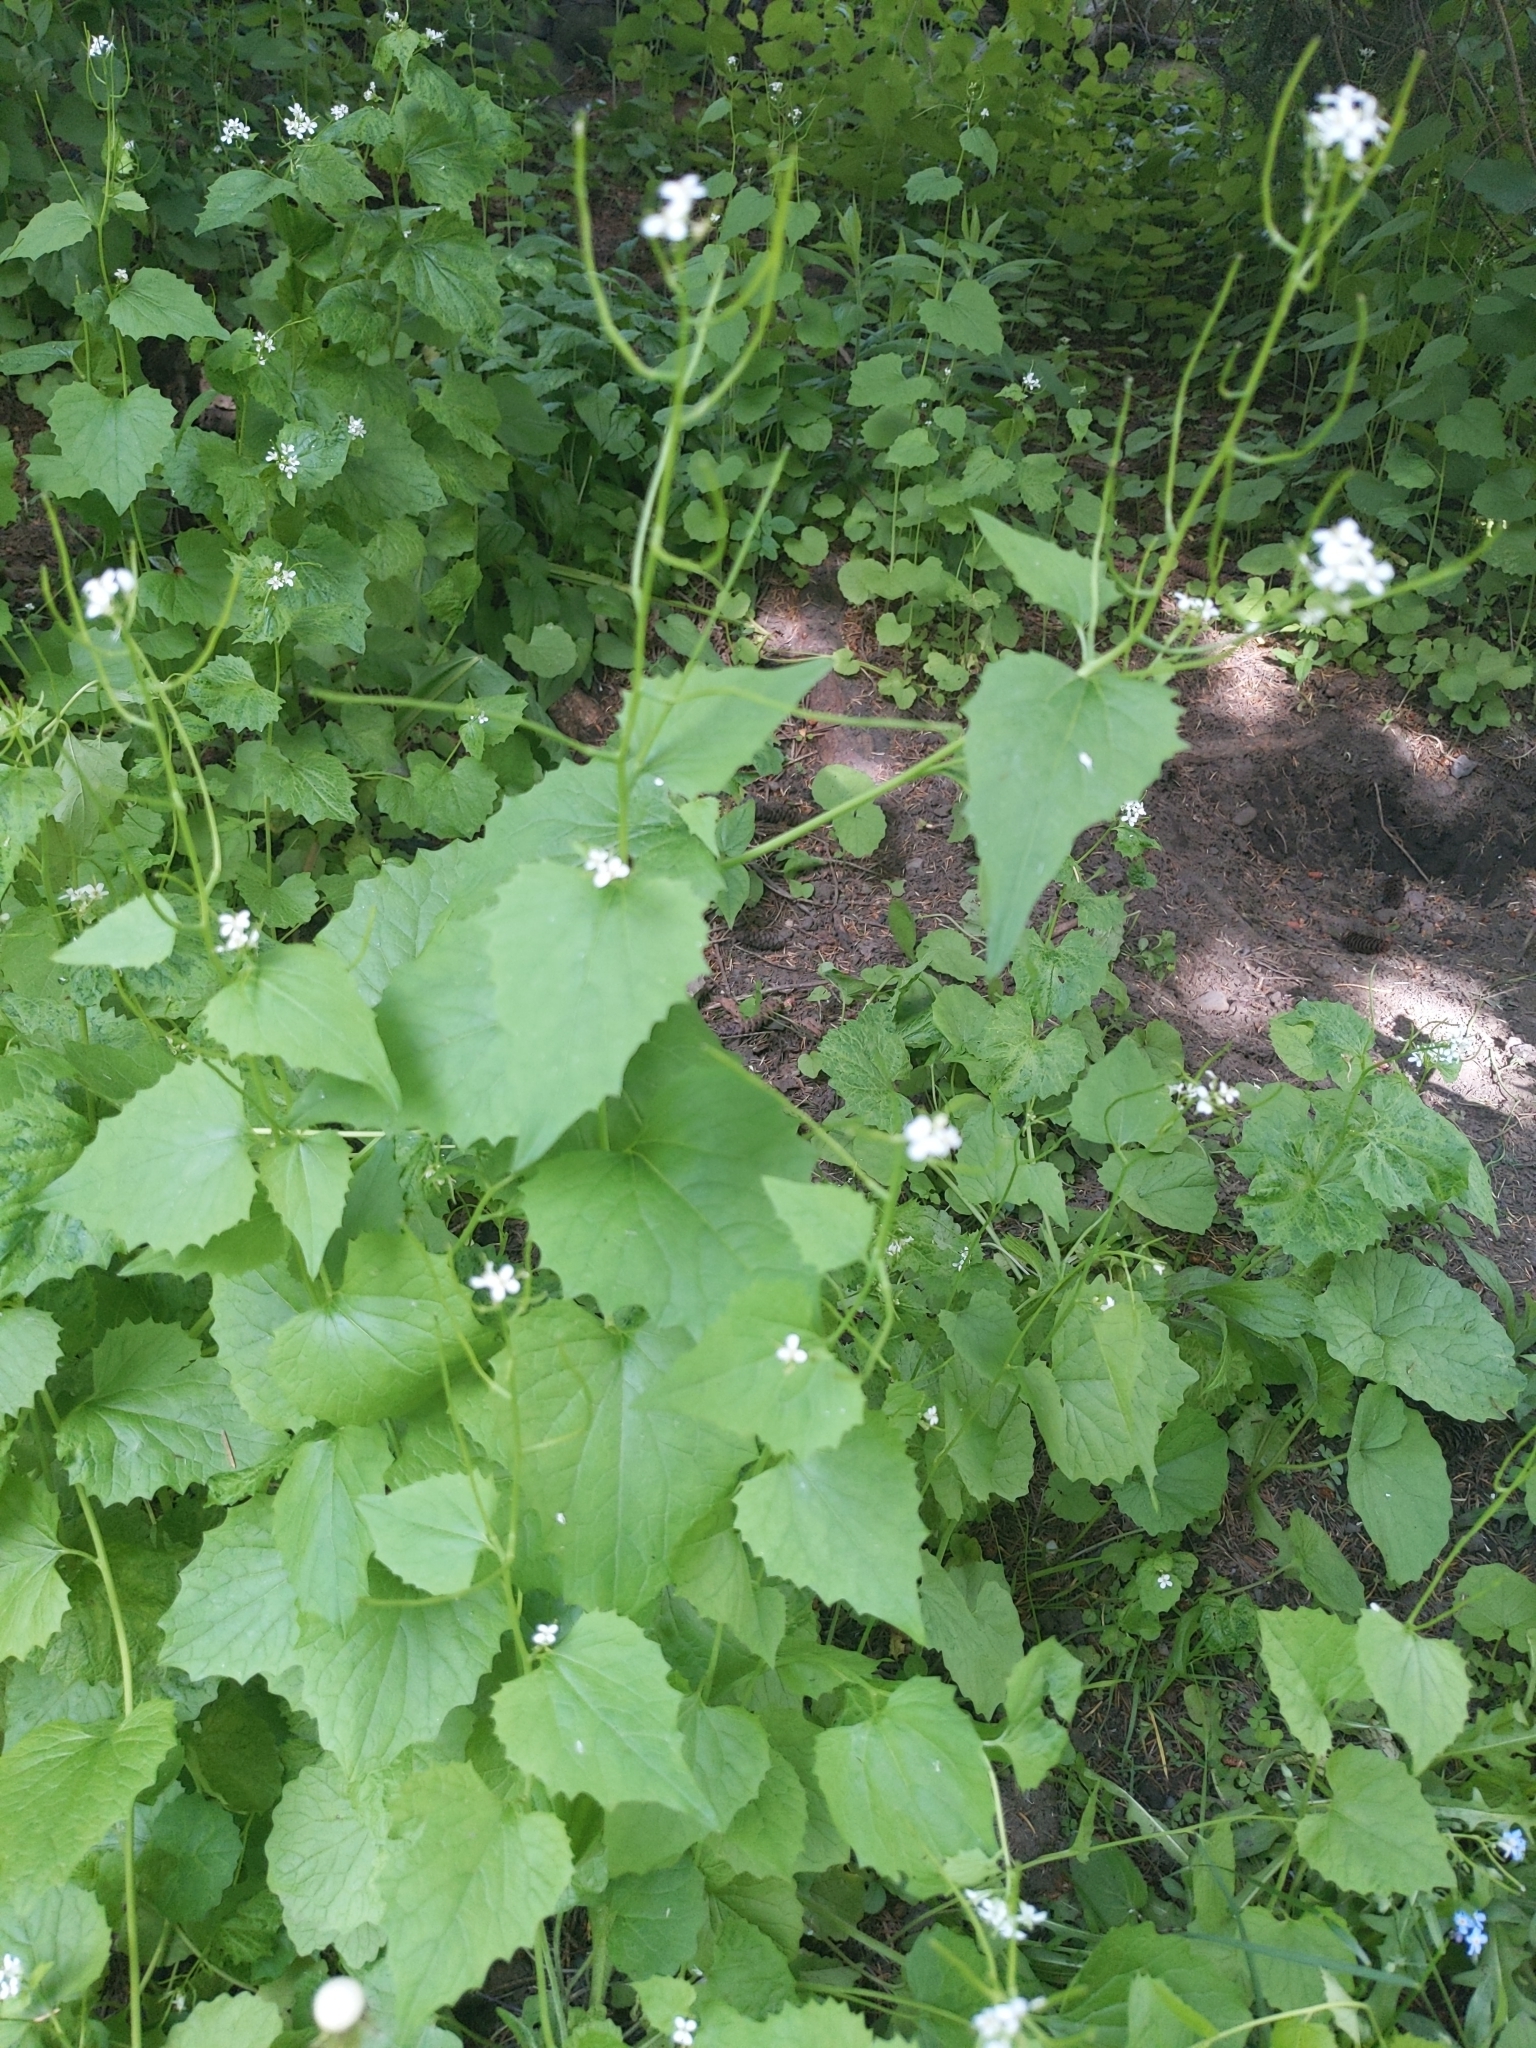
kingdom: Plantae
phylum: Tracheophyta
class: Magnoliopsida
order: Brassicales
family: Brassicaceae
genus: Alliaria
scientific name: Alliaria petiolata
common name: Garlic mustard
